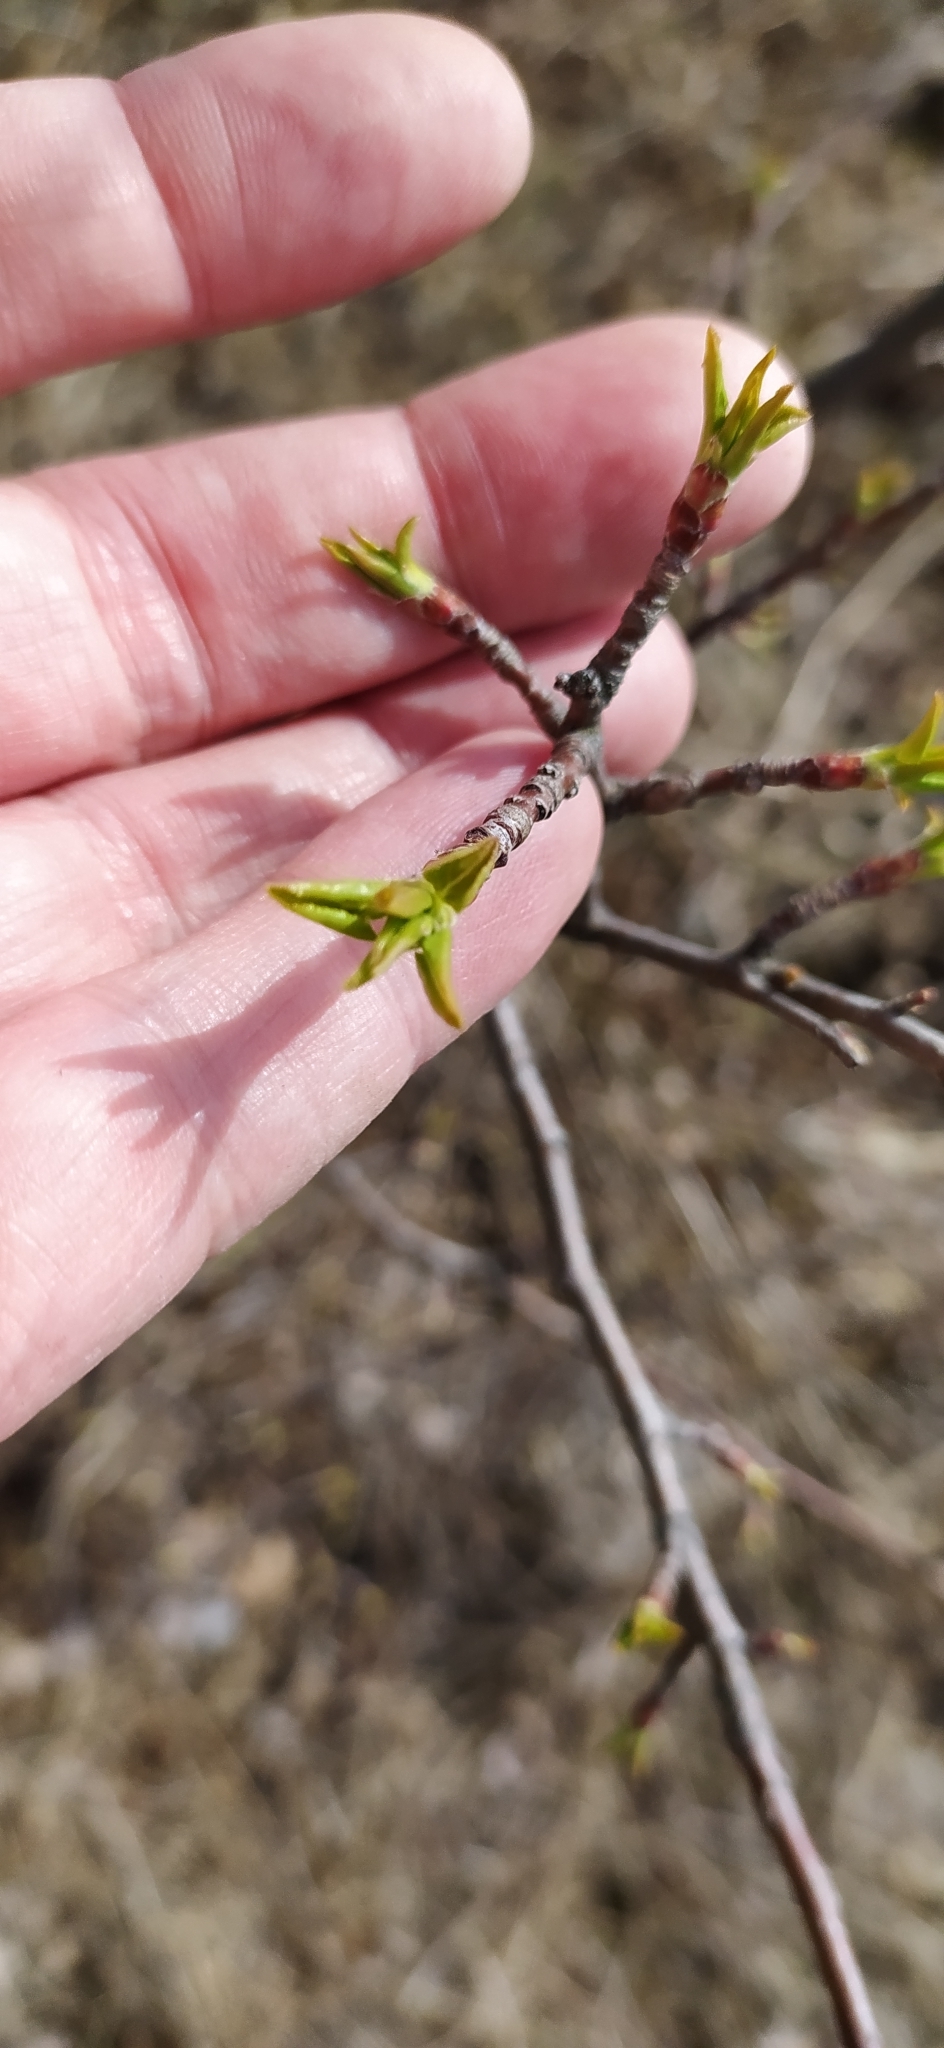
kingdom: Plantae
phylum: Tracheophyta
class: Magnoliopsida
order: Rosales
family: Rosaceae
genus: Malus
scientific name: Malus baccata
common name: Siberian crab
